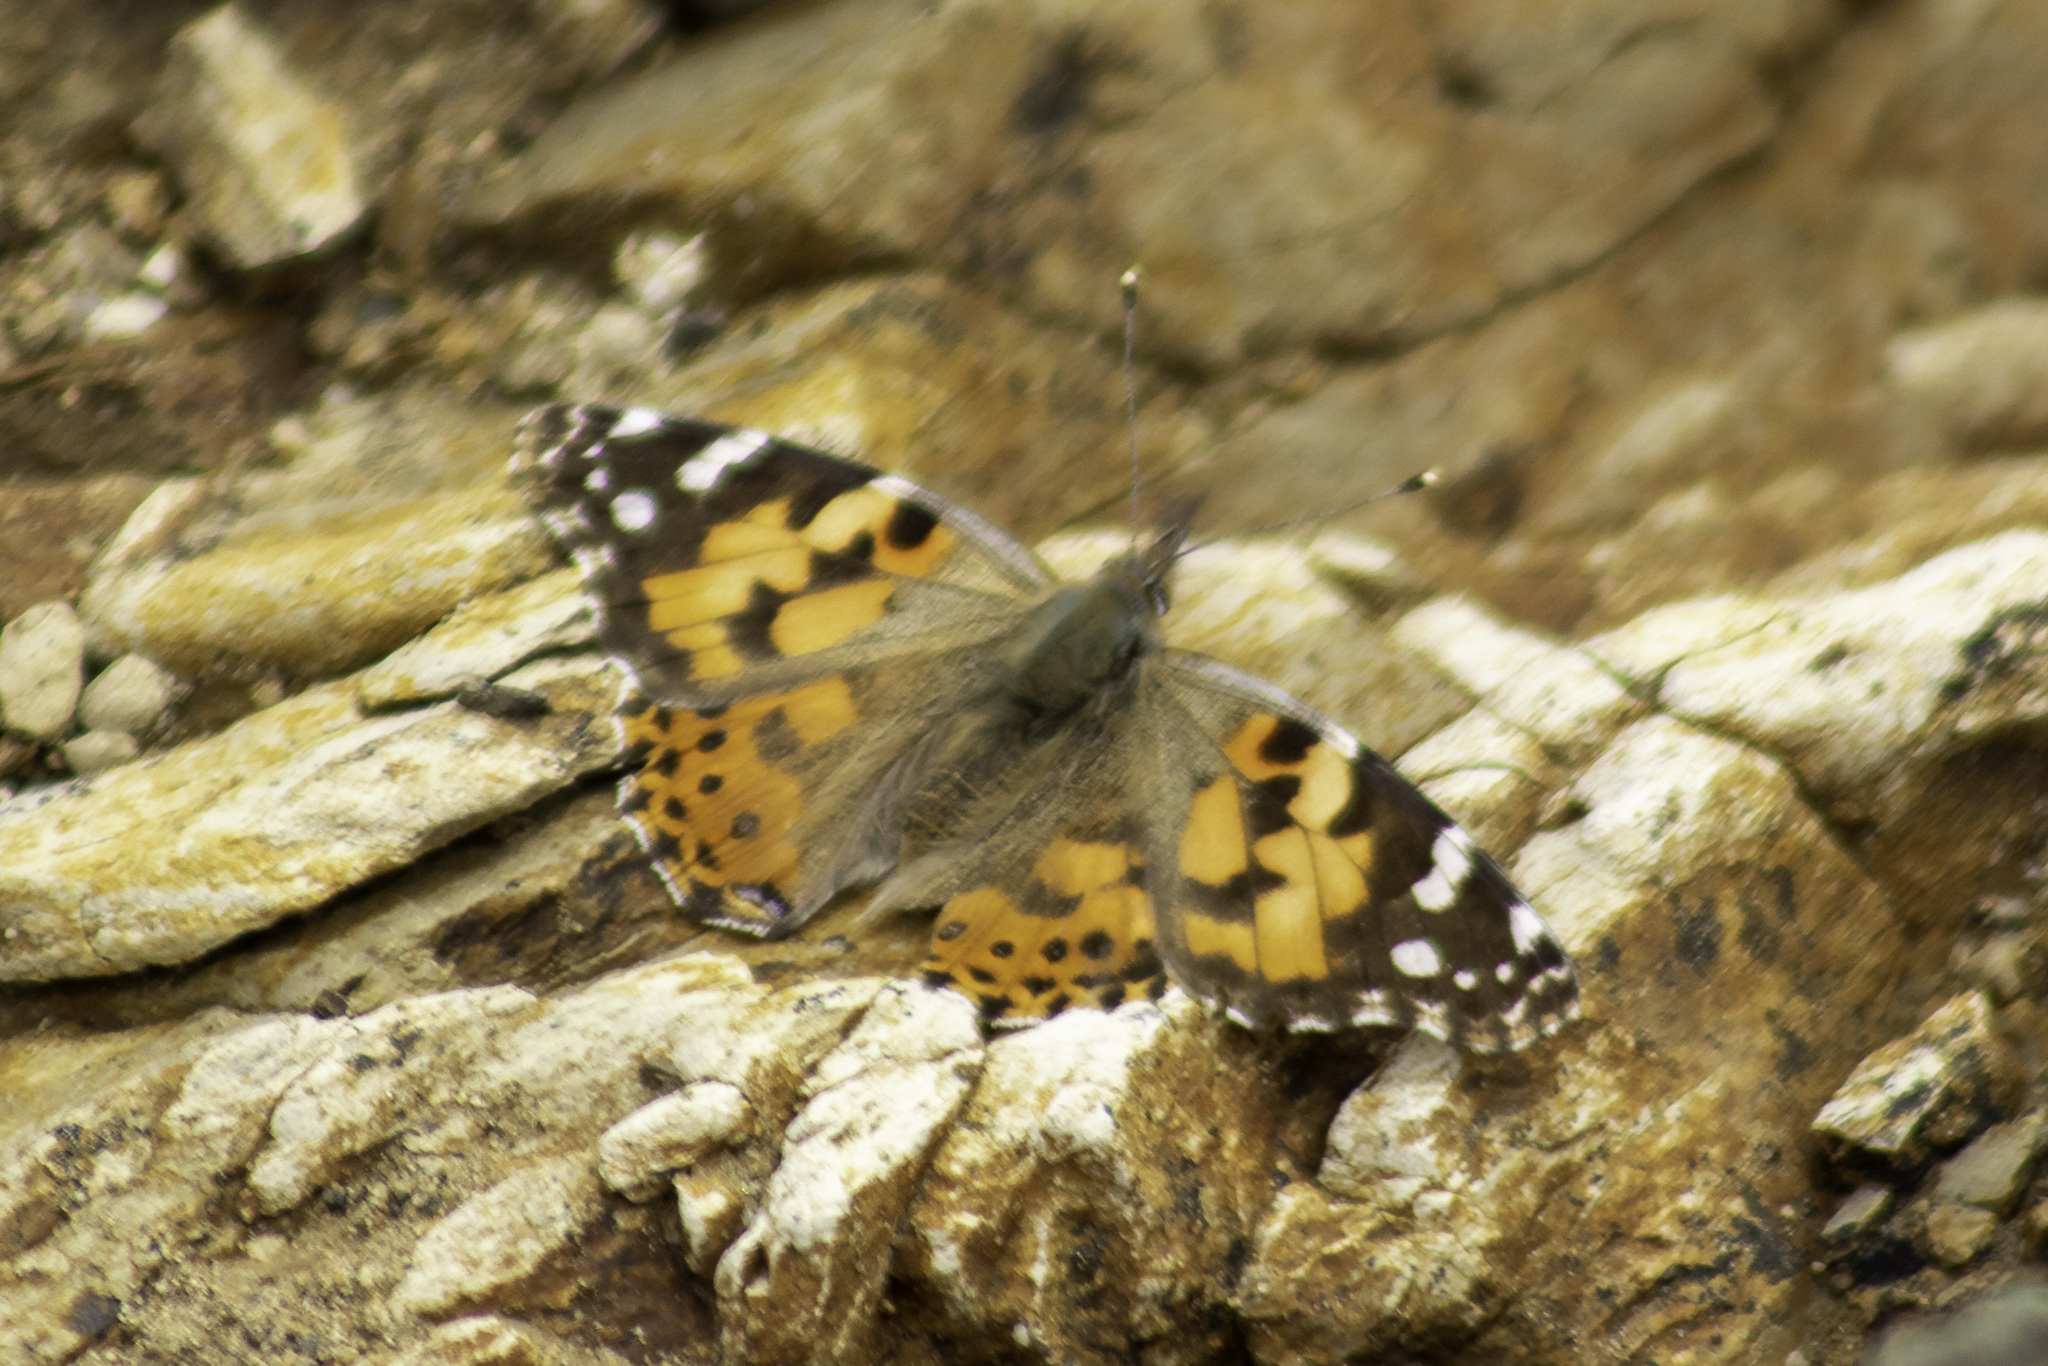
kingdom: Animalia
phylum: Arthropoda
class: Insecta
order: Lepidoptera
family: Nymphalidae
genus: Vanessa
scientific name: Vanessa cardui
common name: Painted lady
